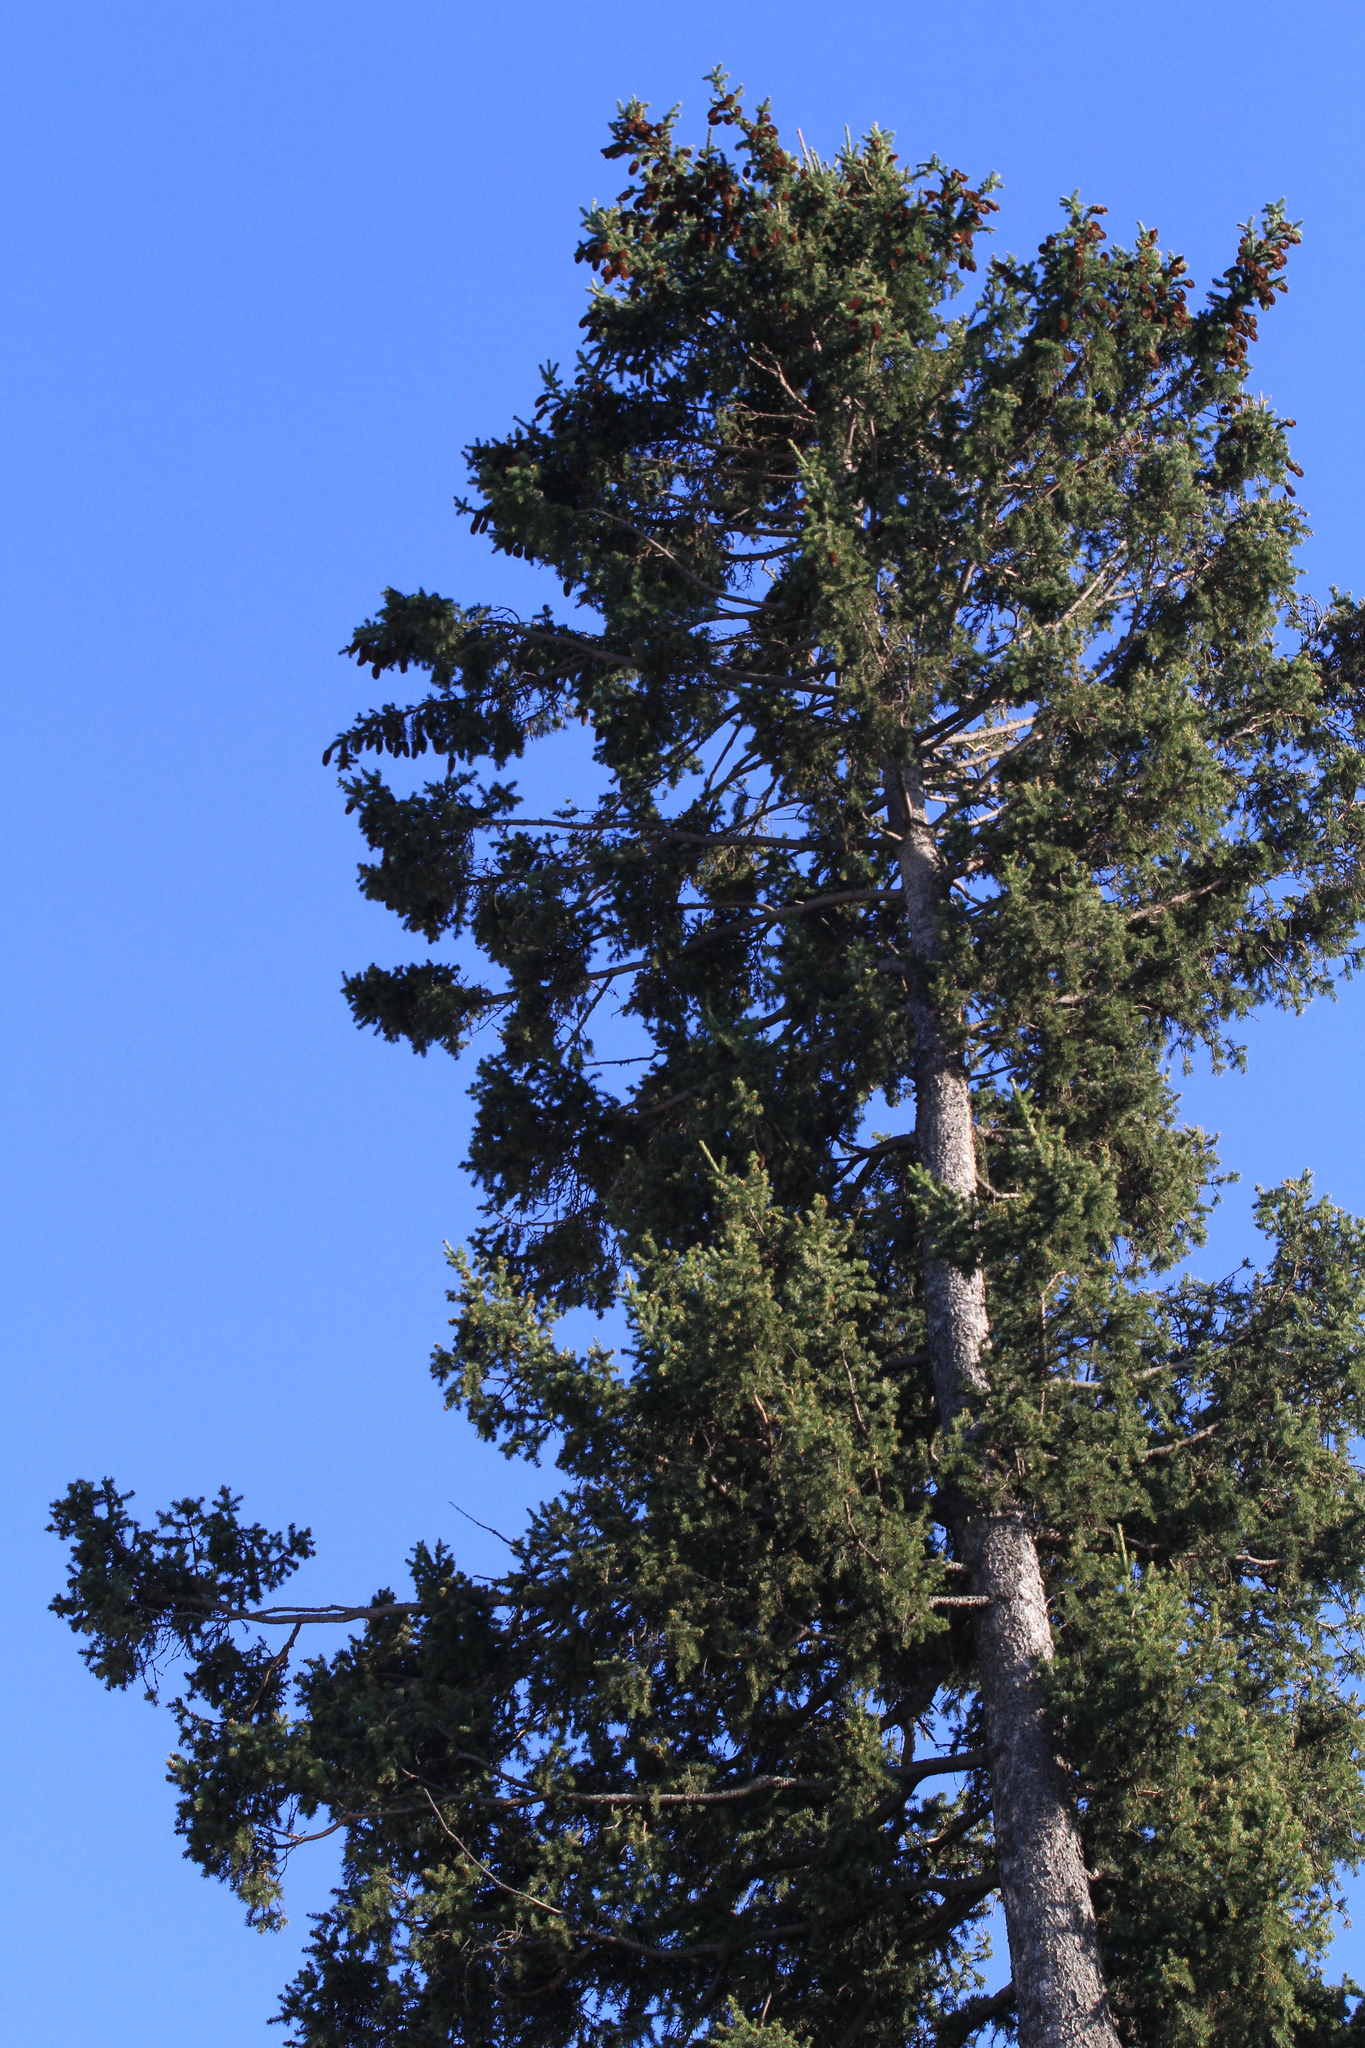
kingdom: Plantae
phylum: Tracheophyta
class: Pinopsida
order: Pinales
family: Pinaceae
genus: Picea
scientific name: Picea obovata
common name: Siberian spruce
